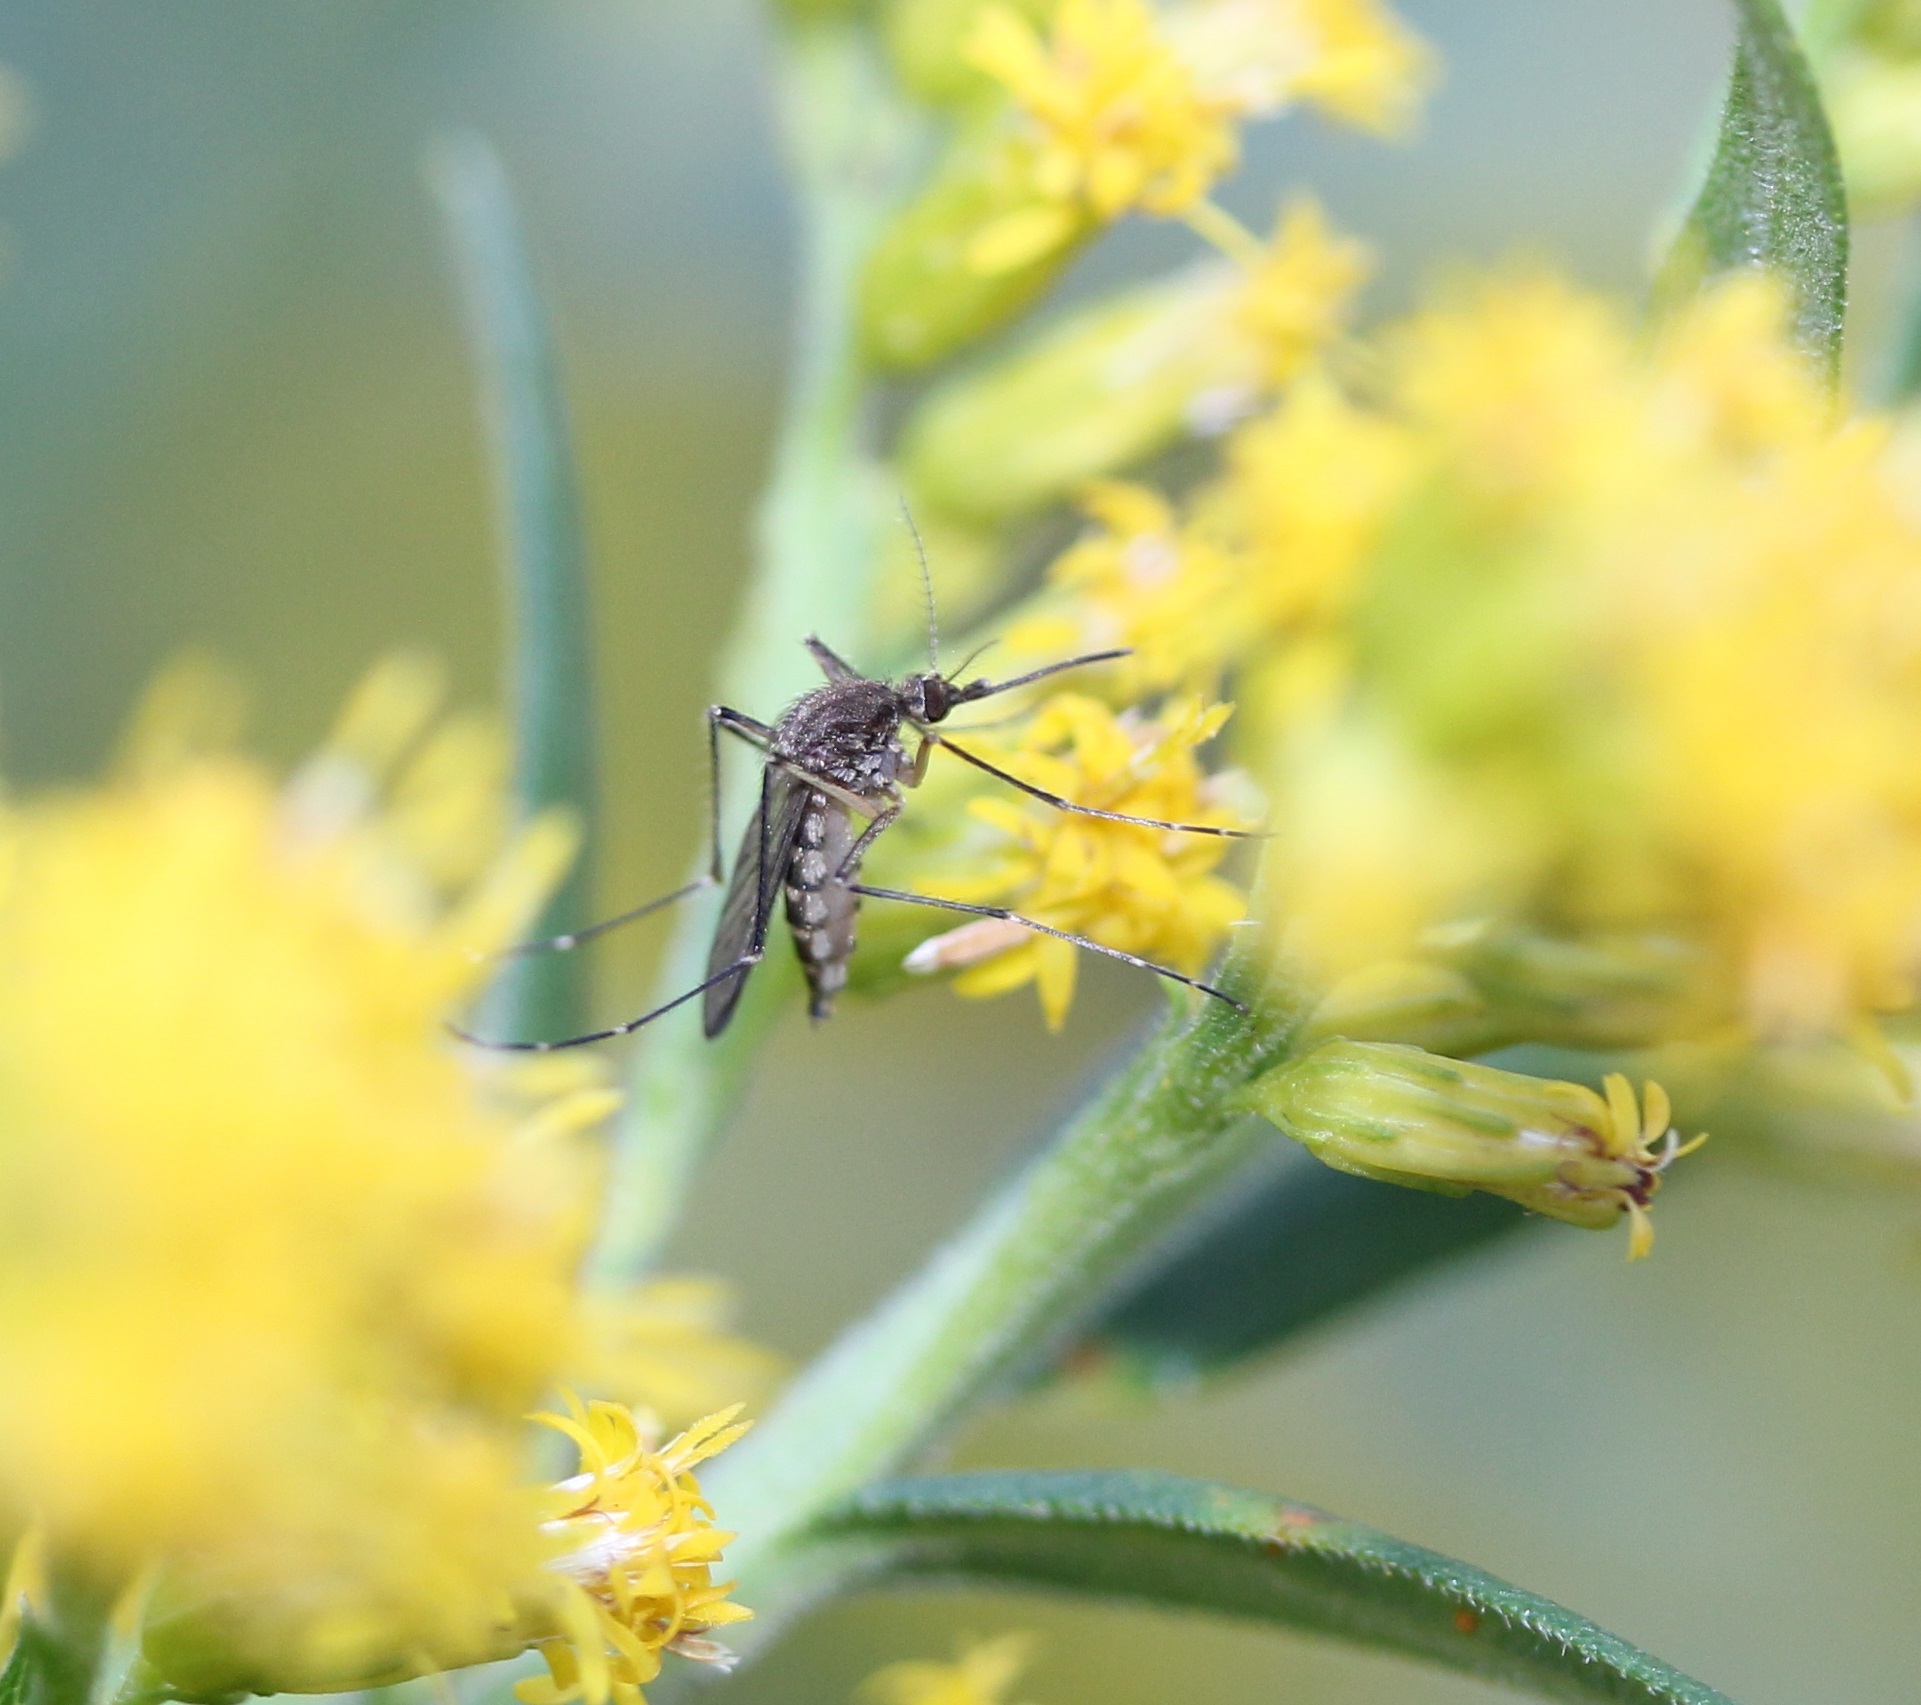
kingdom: Animalia
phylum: Arthropoda
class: Insecta
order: Diptera
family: Culicidae
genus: Aedes
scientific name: Aedes vexans
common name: Inland floodwater mosquito
